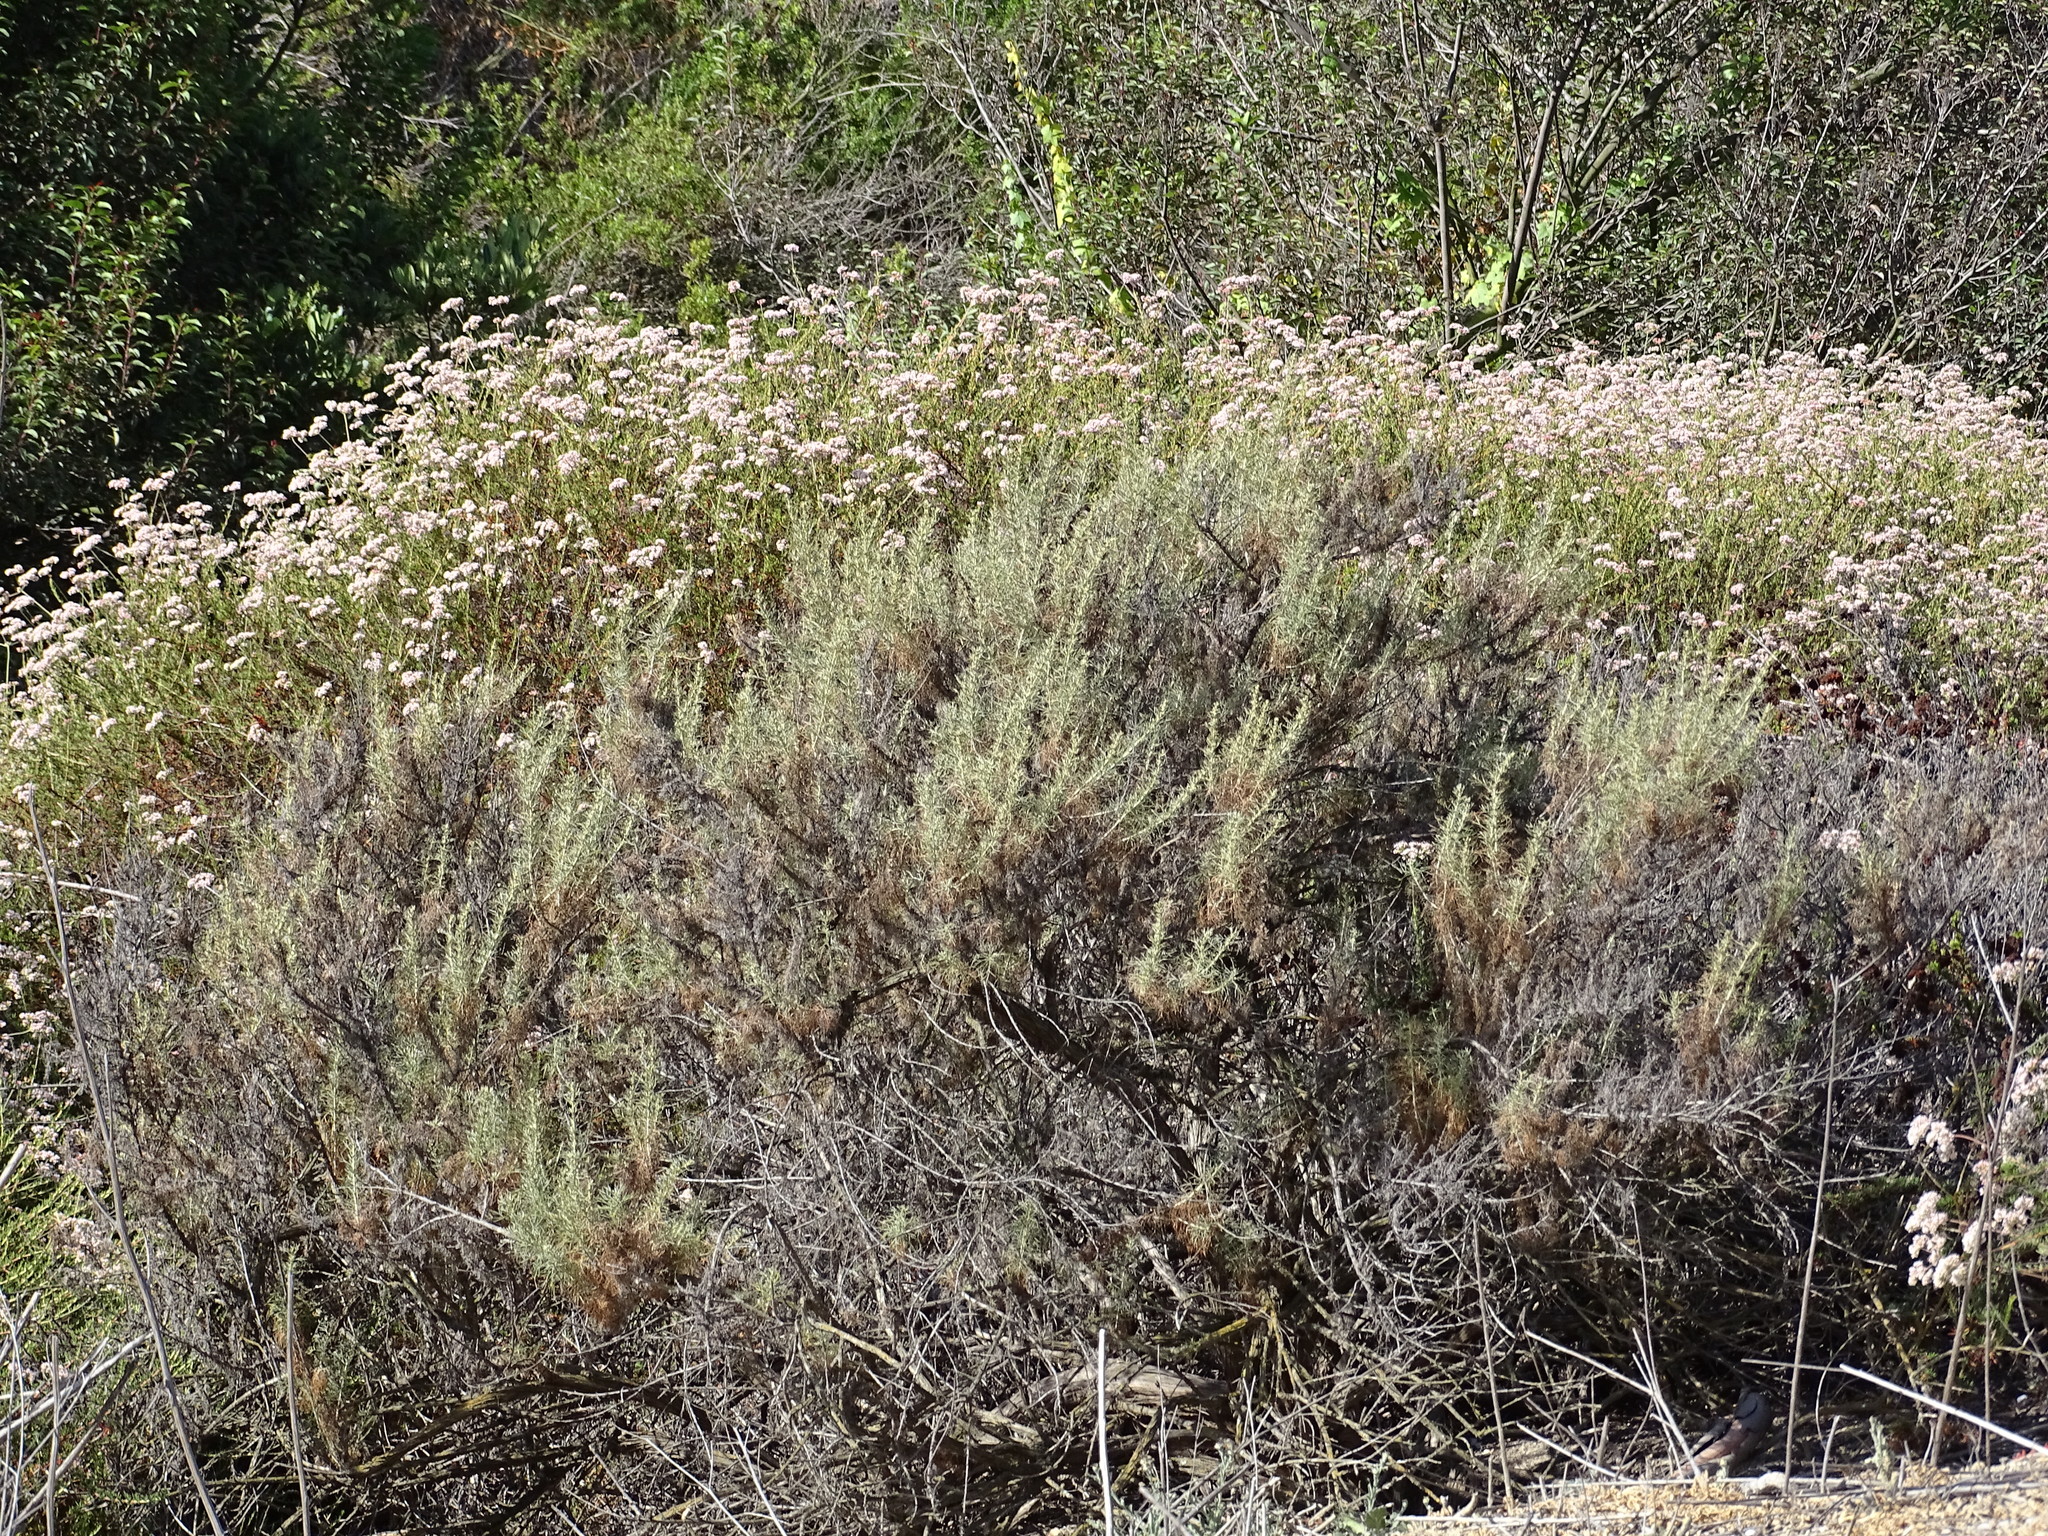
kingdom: Plantae
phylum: Tracheophyta
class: Magnoliopsida
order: Asterales
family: Asteraceae
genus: Artemisia
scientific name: Artemisia californica
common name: California sagebrush
